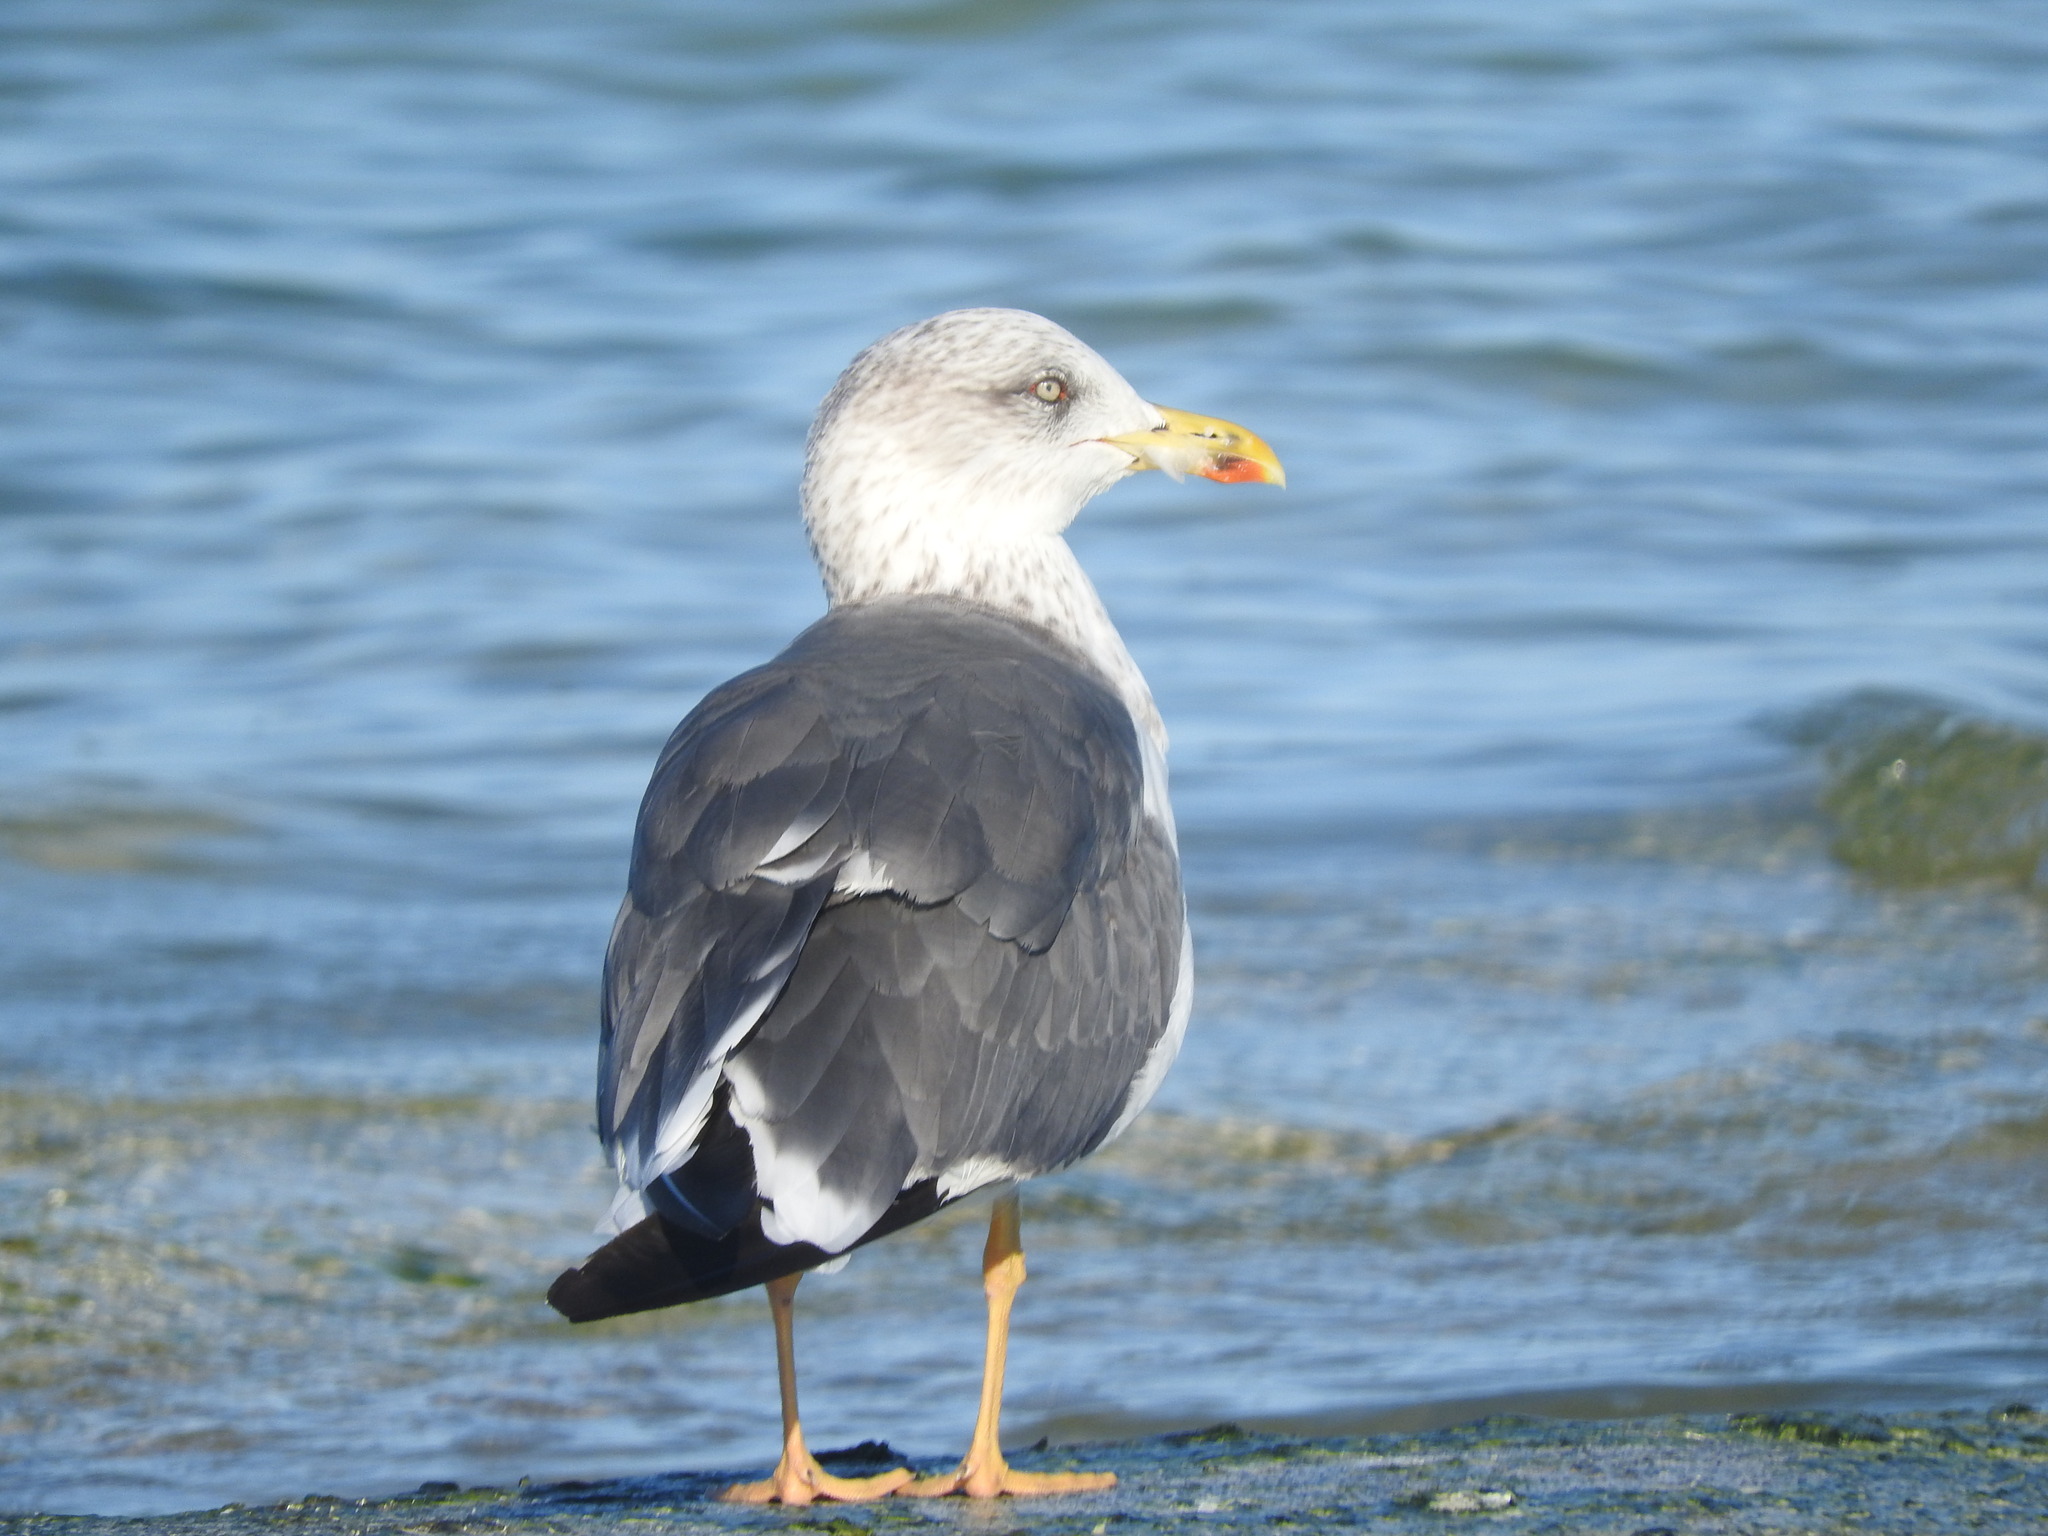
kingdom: Animalia
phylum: Chordata
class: Aves
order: Charadriiformes
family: Laridae
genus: Larus
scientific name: Larus fuscus
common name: Lesser black-backed gull
